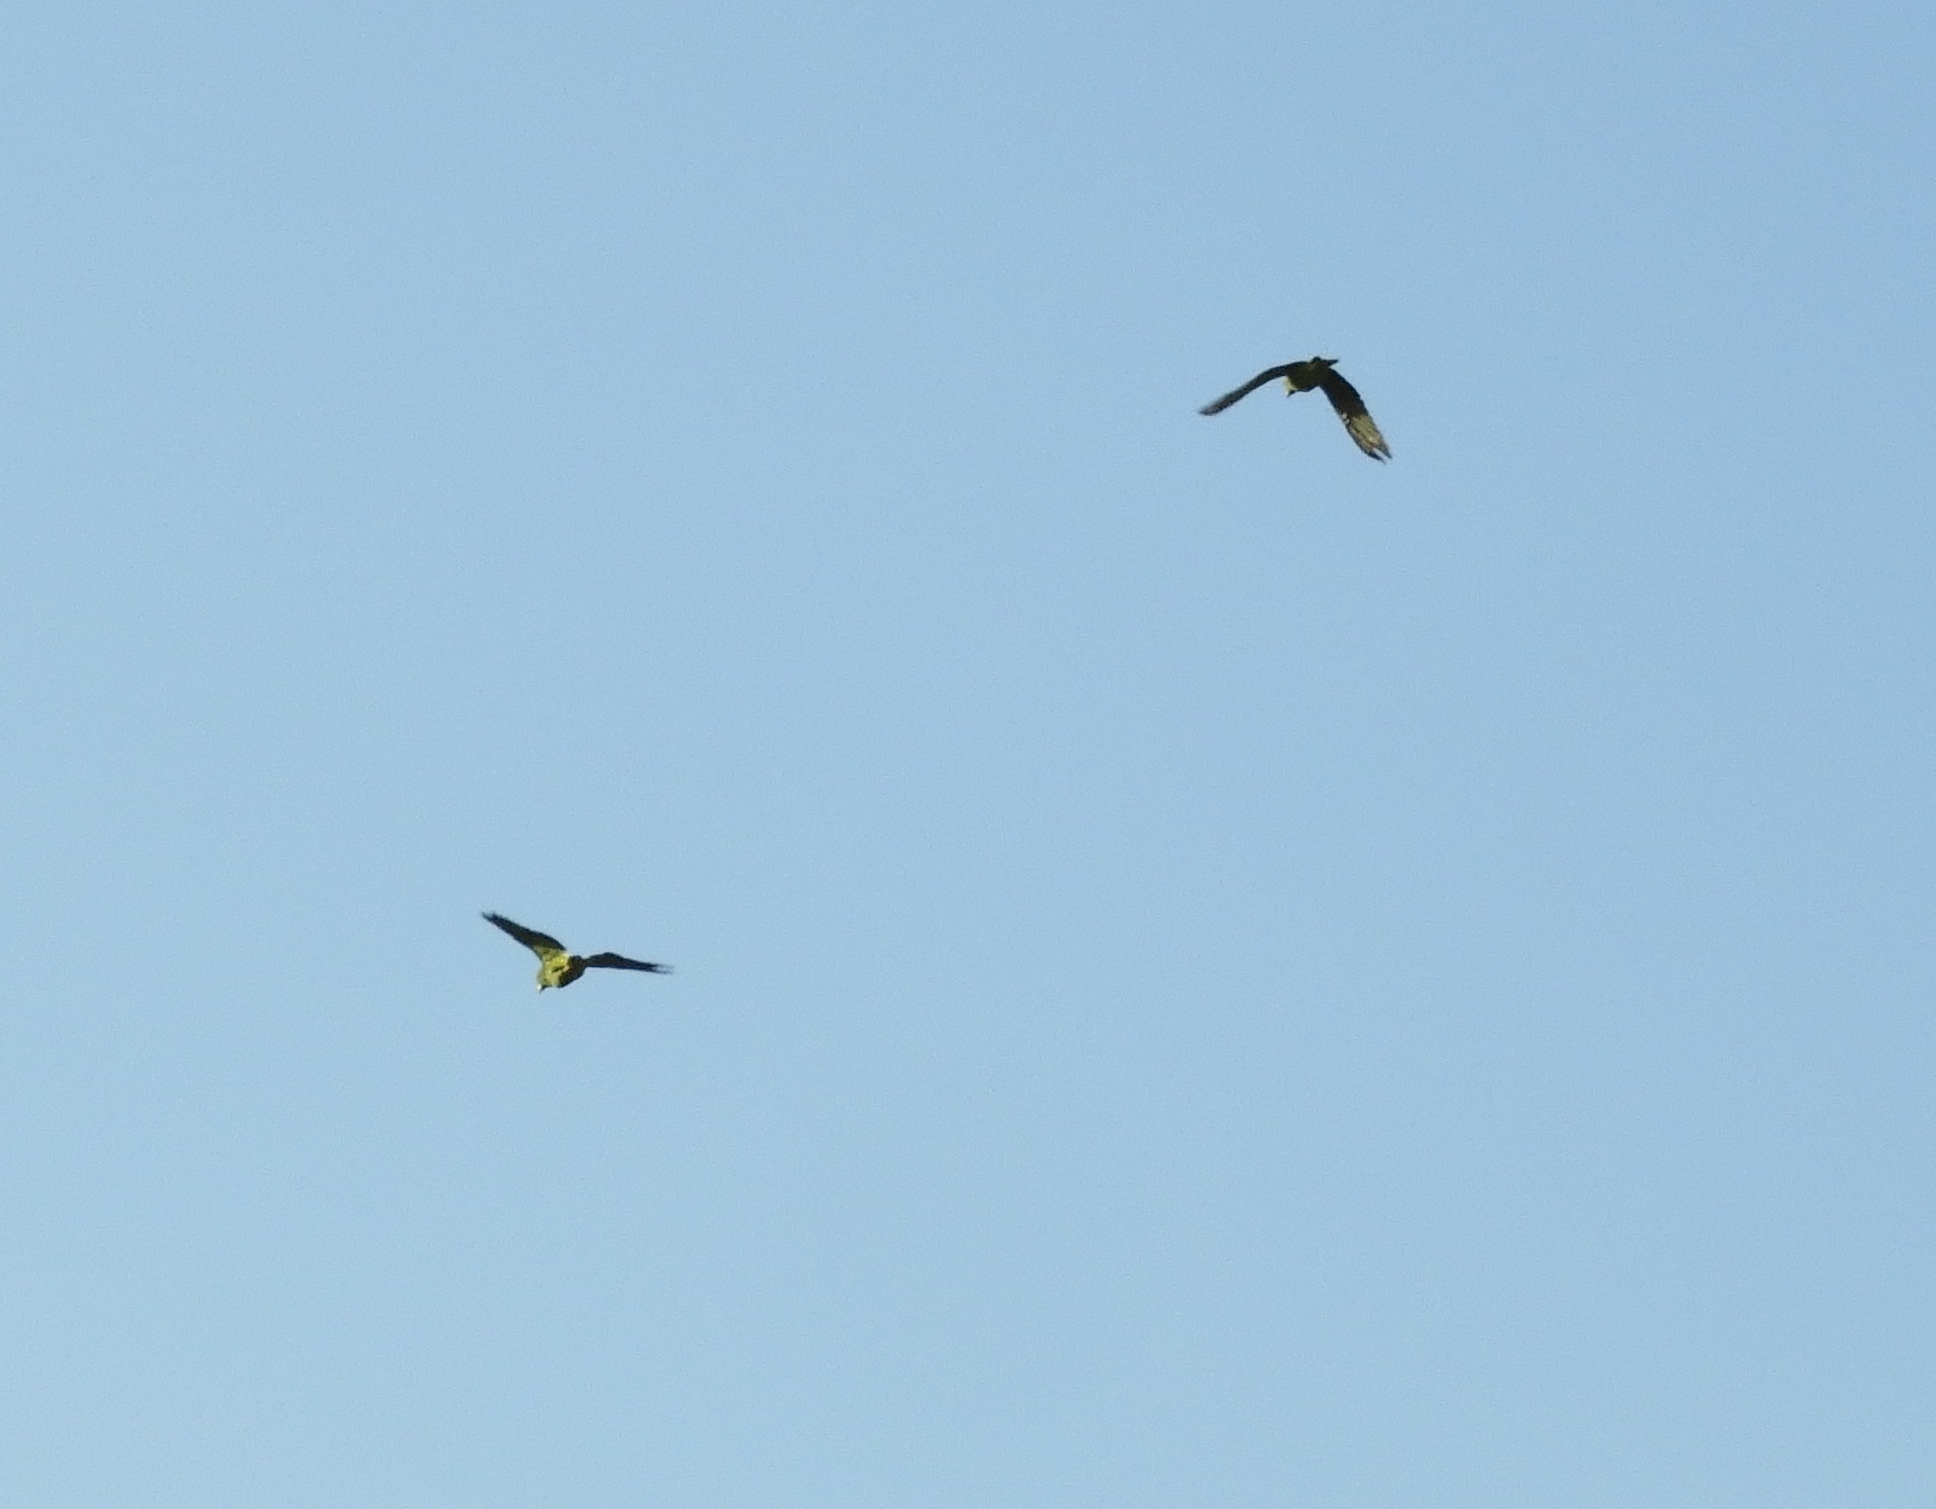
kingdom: Animalia
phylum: Chordata
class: Aves
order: Psittaciformes
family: Psittacidae
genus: Amazona
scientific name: Amazona albifrons
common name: White-fronted amazon
